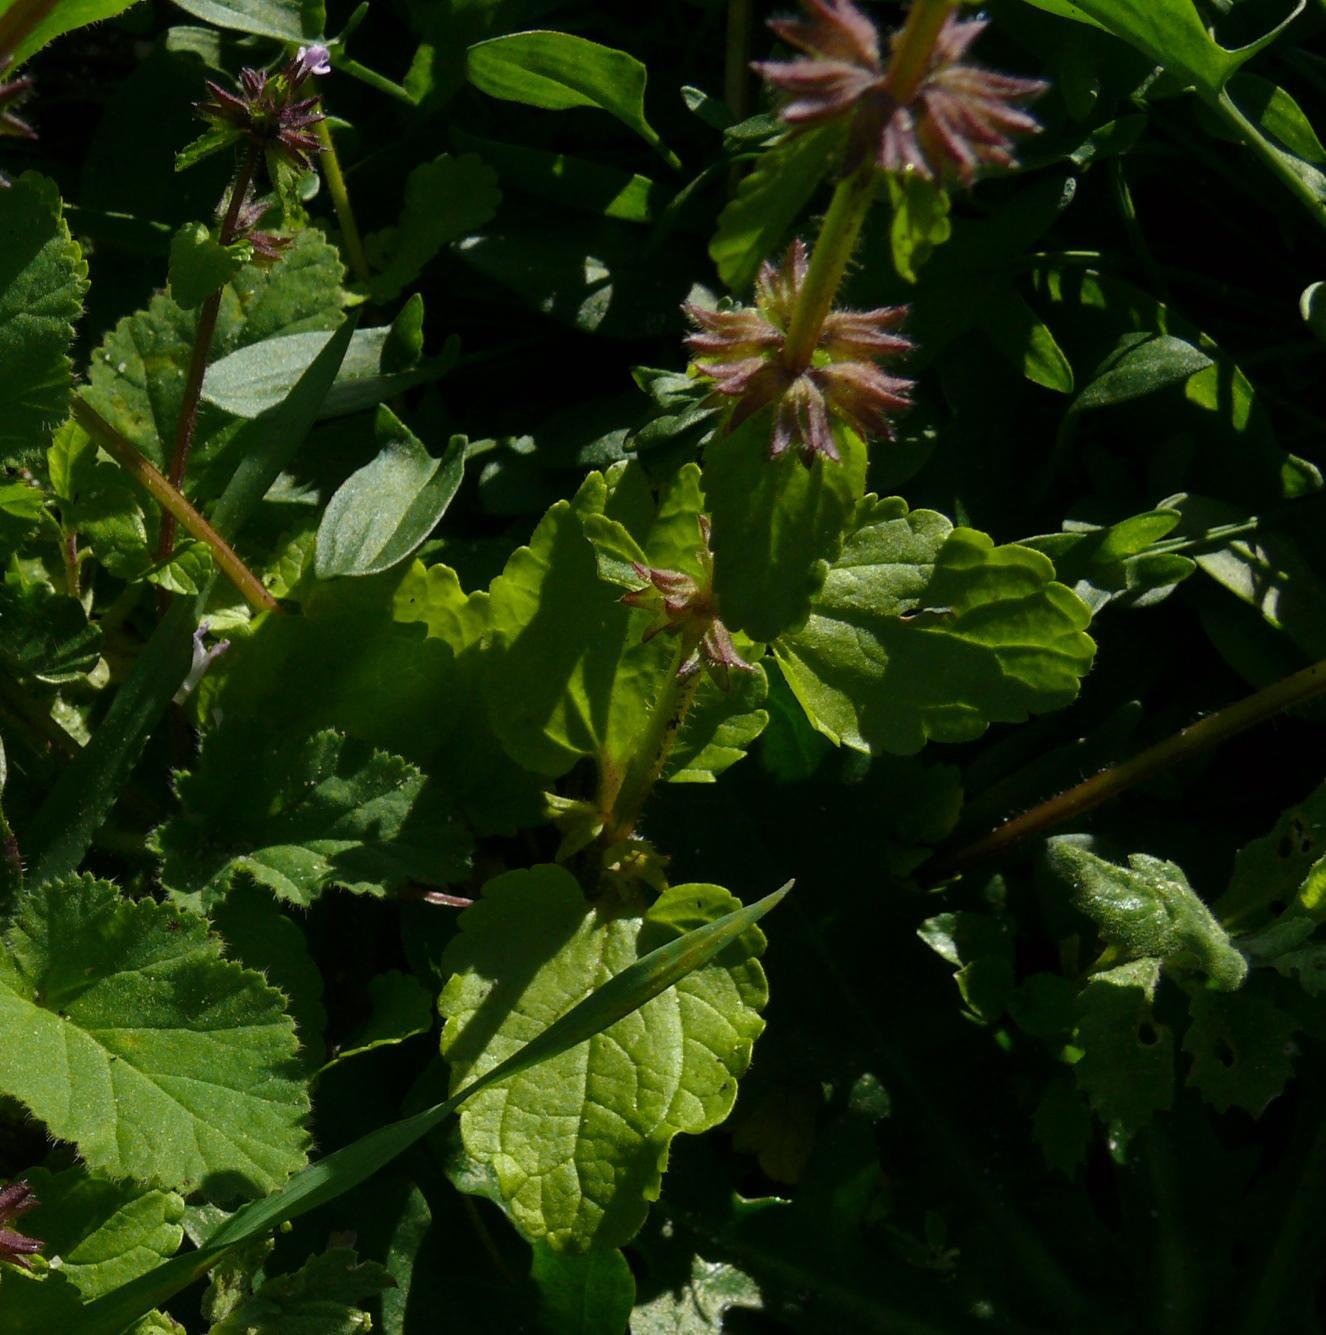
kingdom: Plantae
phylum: Tracheophyta
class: Magnoliopsida
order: Lamiales
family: Lamiaceae
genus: Stachys
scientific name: Stachys arvensis
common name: Field woundwort
